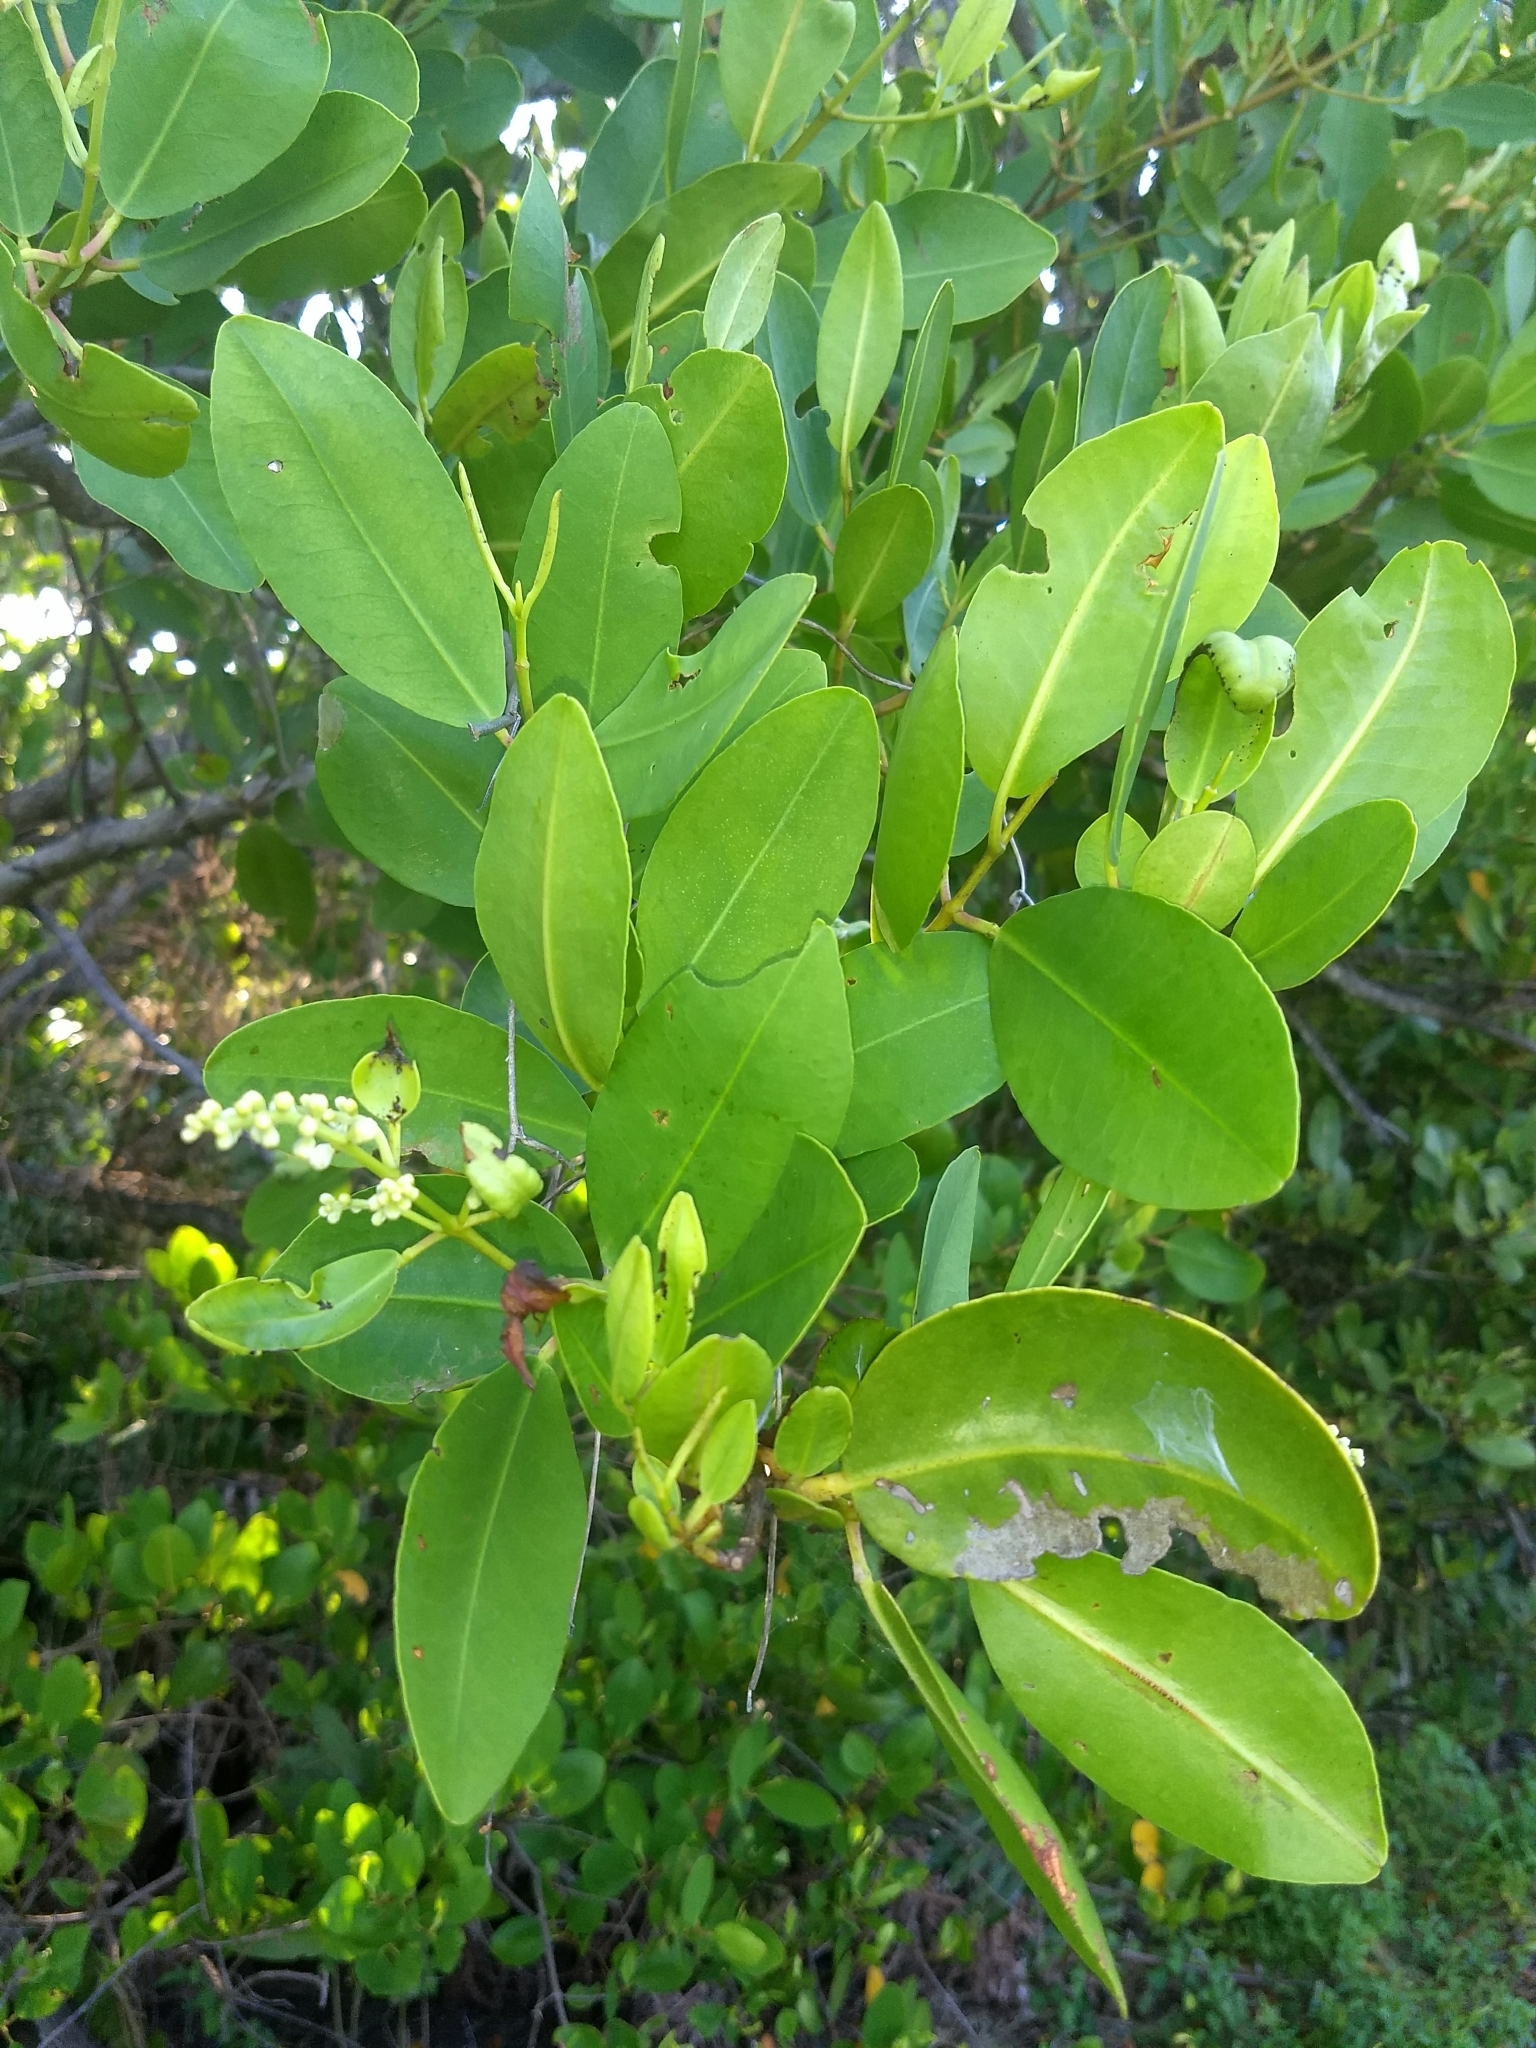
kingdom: Plantae
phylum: Tracheophyta
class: Magnoliopsida
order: Myrtales
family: Combretaceae
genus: Laguncularia
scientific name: Laguncularia racemosa
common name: White mangrove
